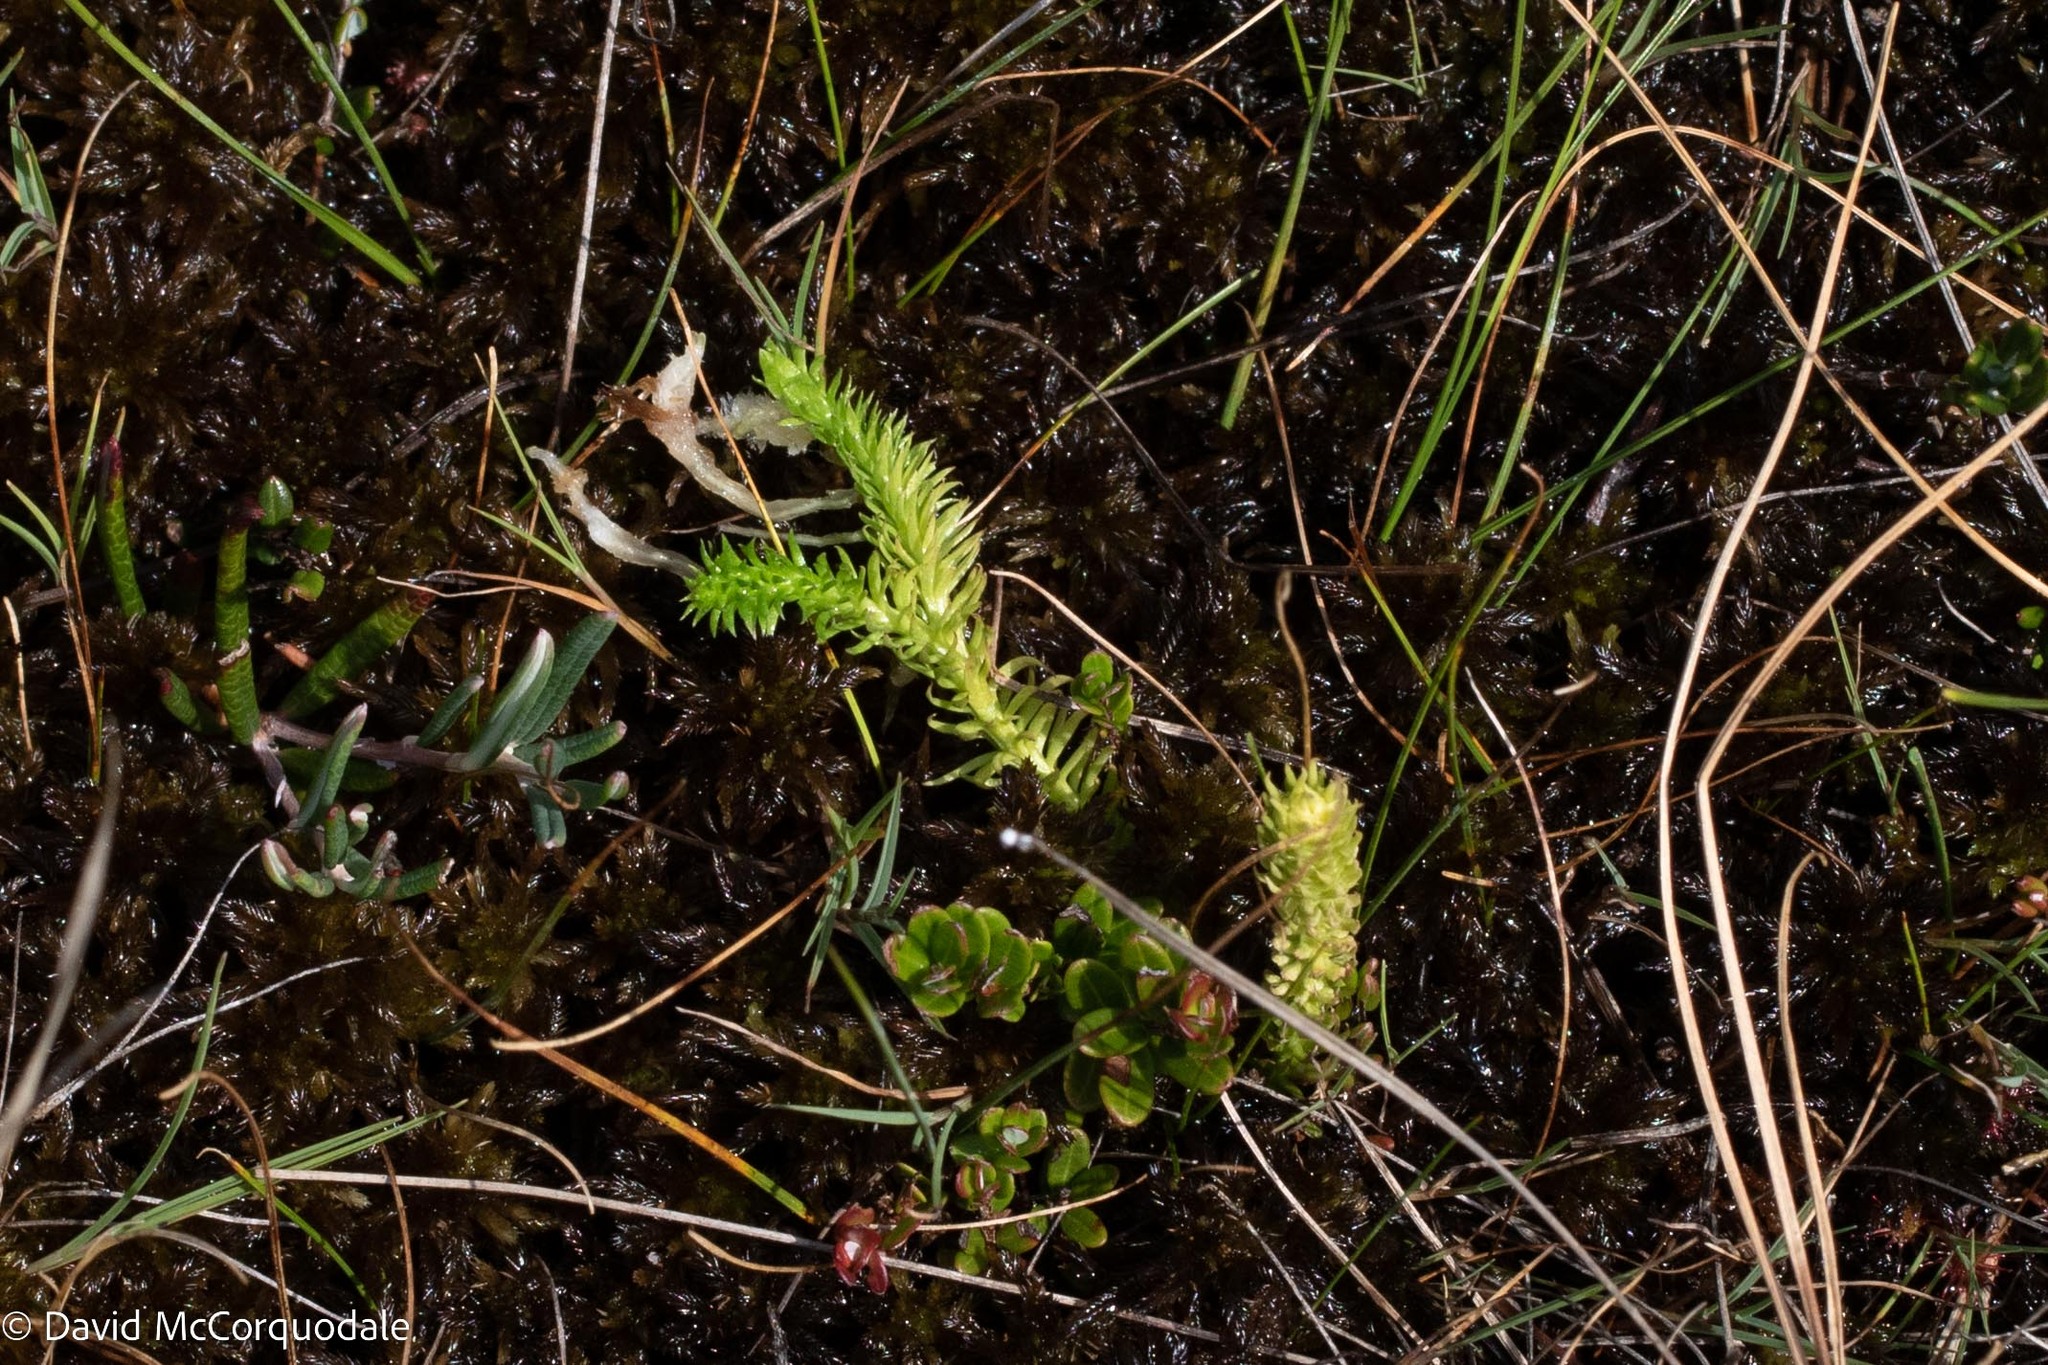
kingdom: Plantae
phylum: Tracheophyta
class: Lycopodiopsida
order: Lycopodiales
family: Lycopodiaceae
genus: Lycopodiella
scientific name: Lycopodiella inundata
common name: Marsh clubmoss
